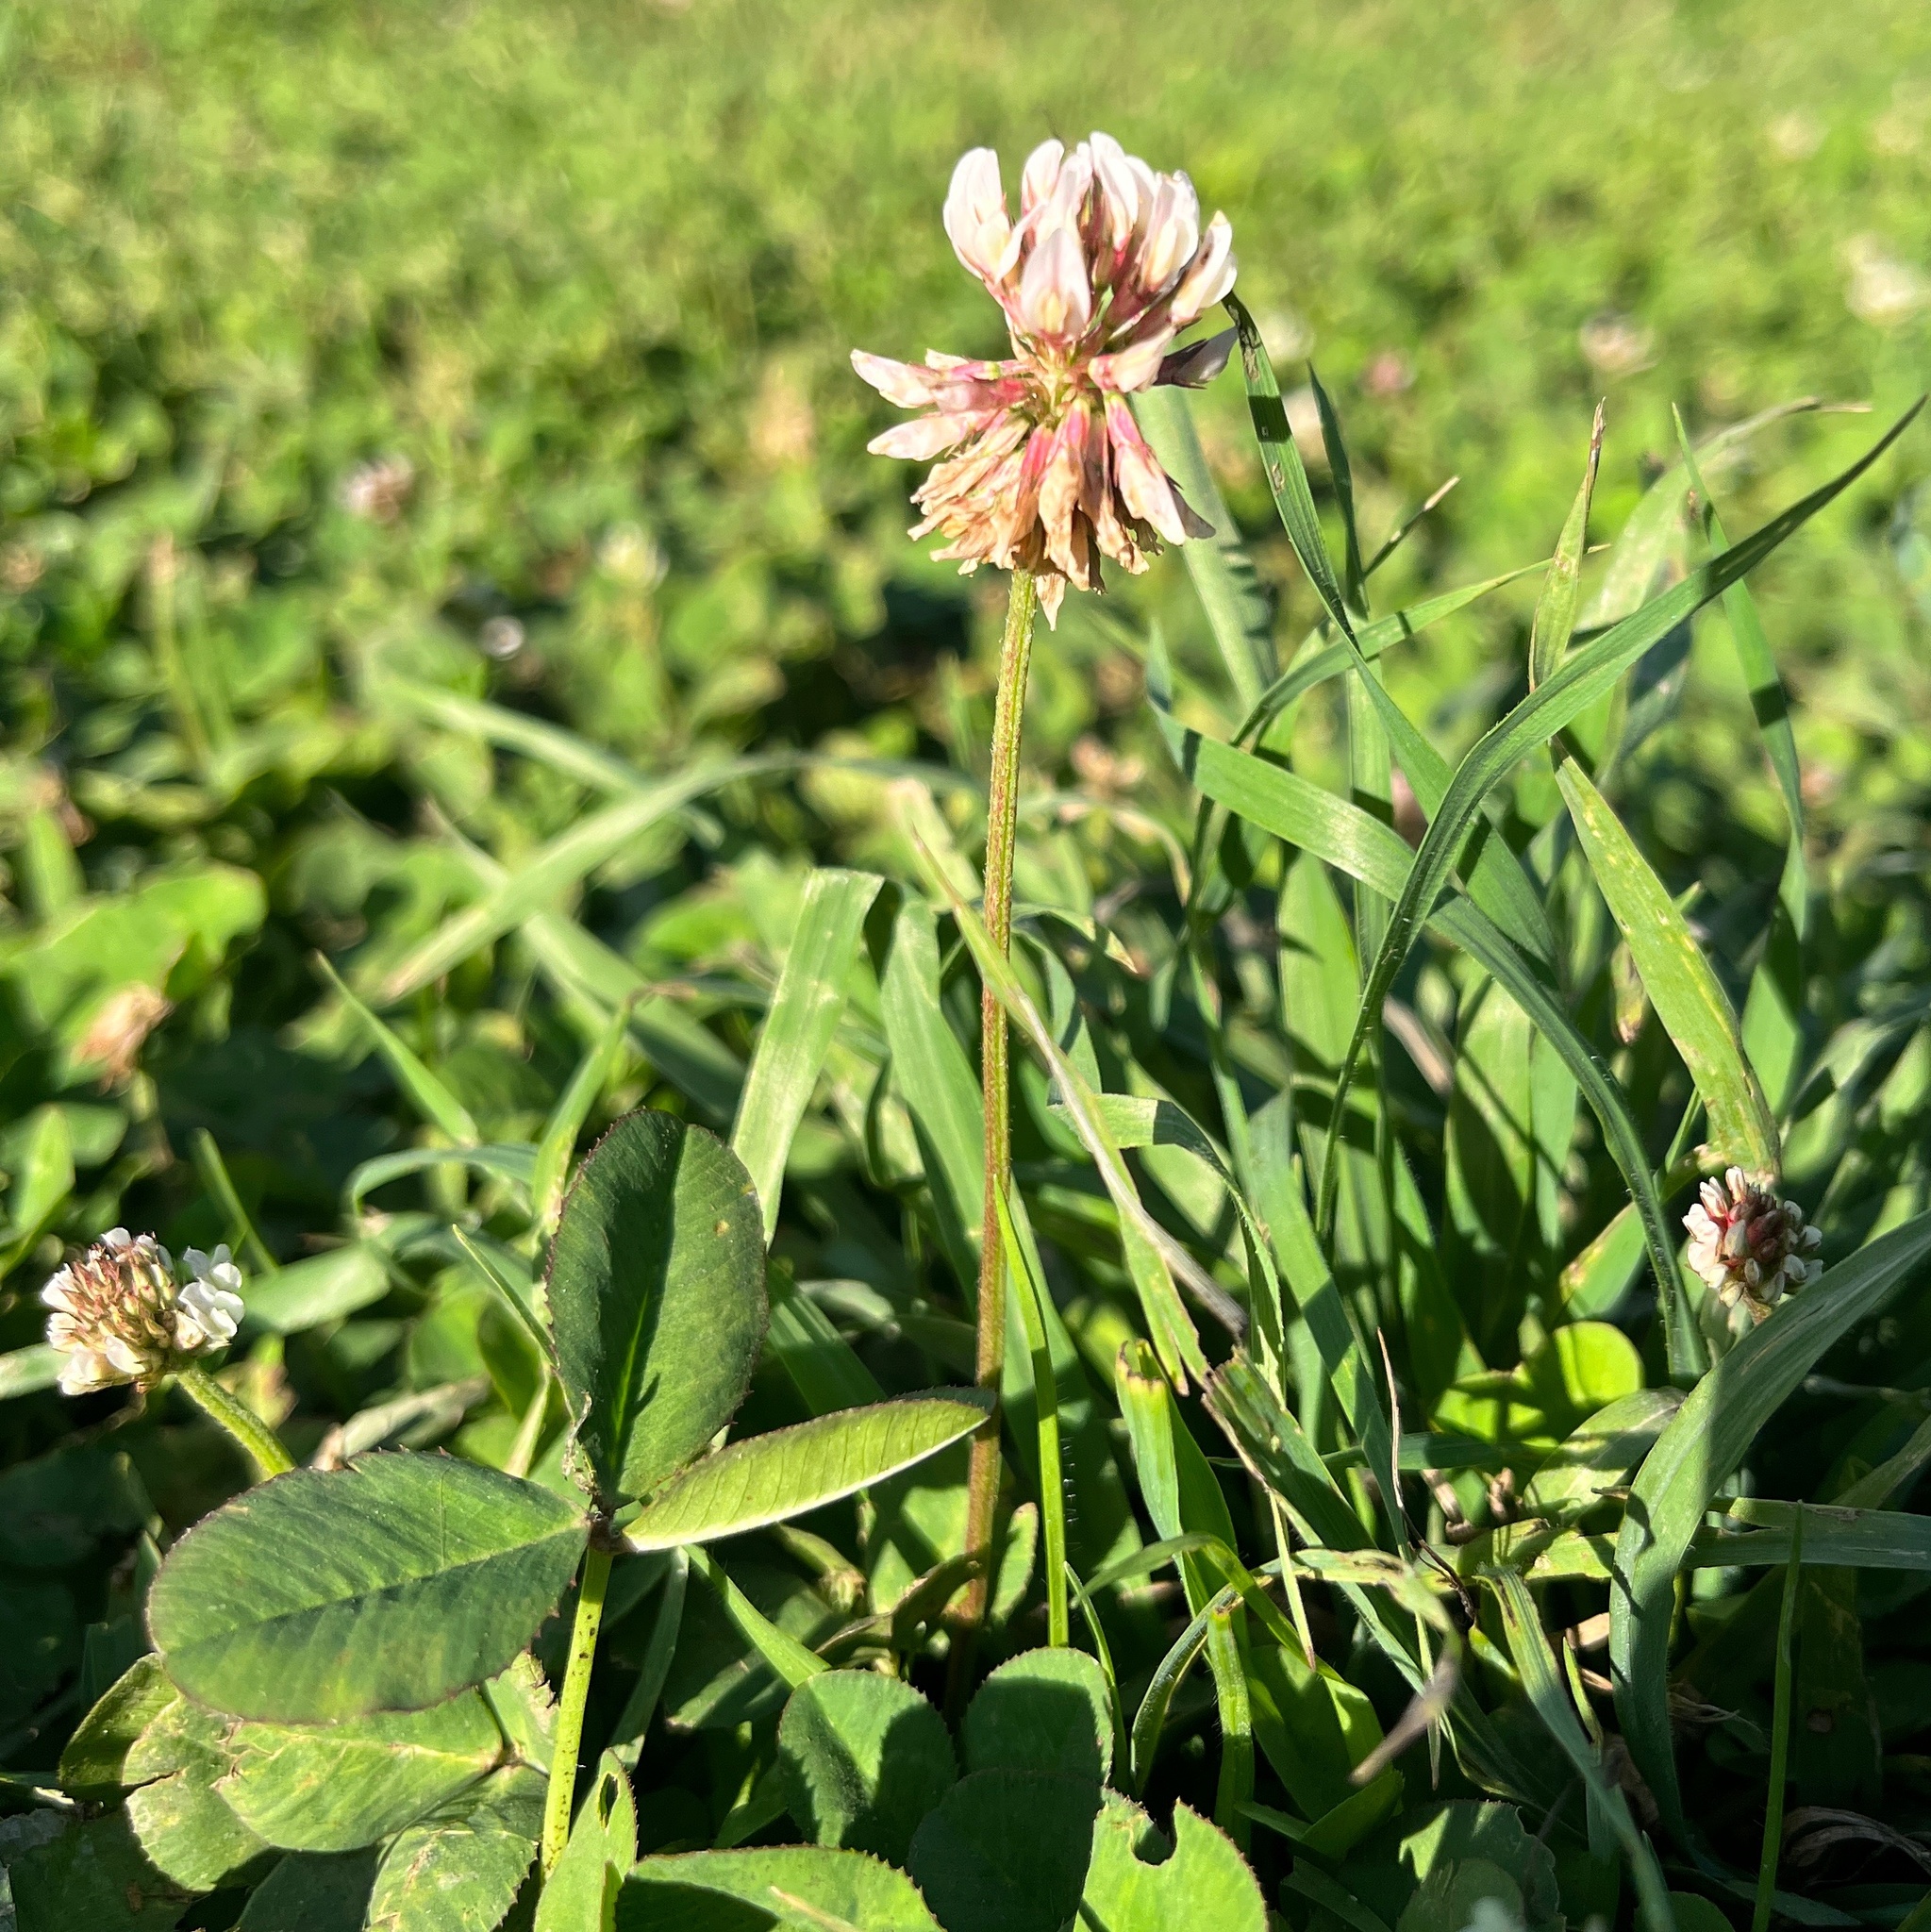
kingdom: Plantae
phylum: Tracheophyta
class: Magnoliopsida
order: Fabales
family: Fabaceae
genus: Trifolium
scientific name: Trifolium repens
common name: White clover
